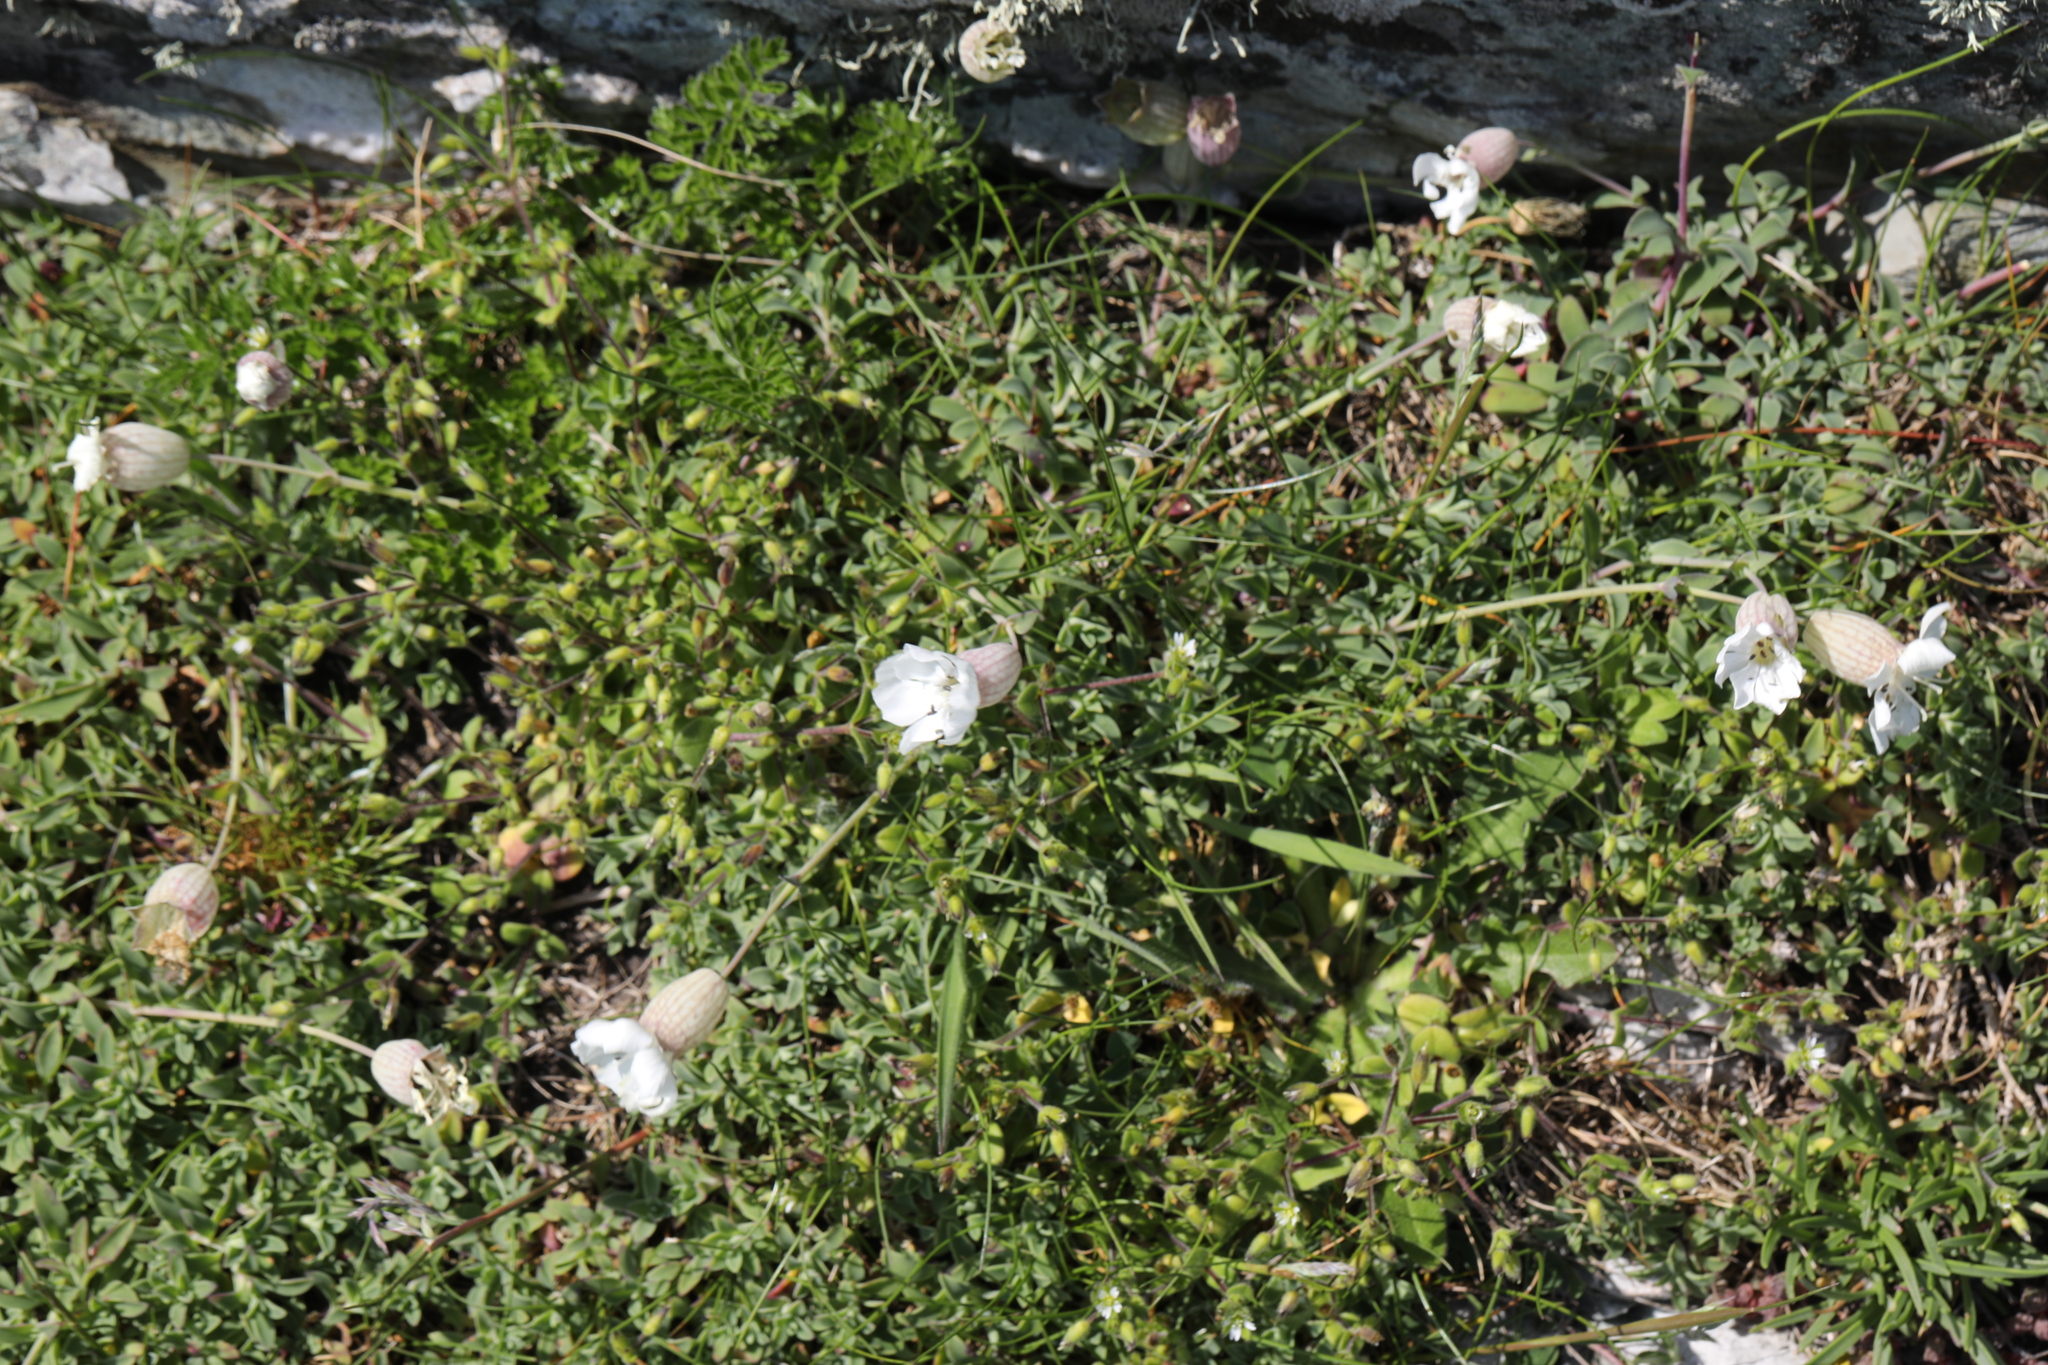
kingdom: Plantae
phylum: Tracheophyta
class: Magnoliopsida
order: Caryophyllales
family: Caryophyllaceae
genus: Silene
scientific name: Silene uniflora
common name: Sea campion
